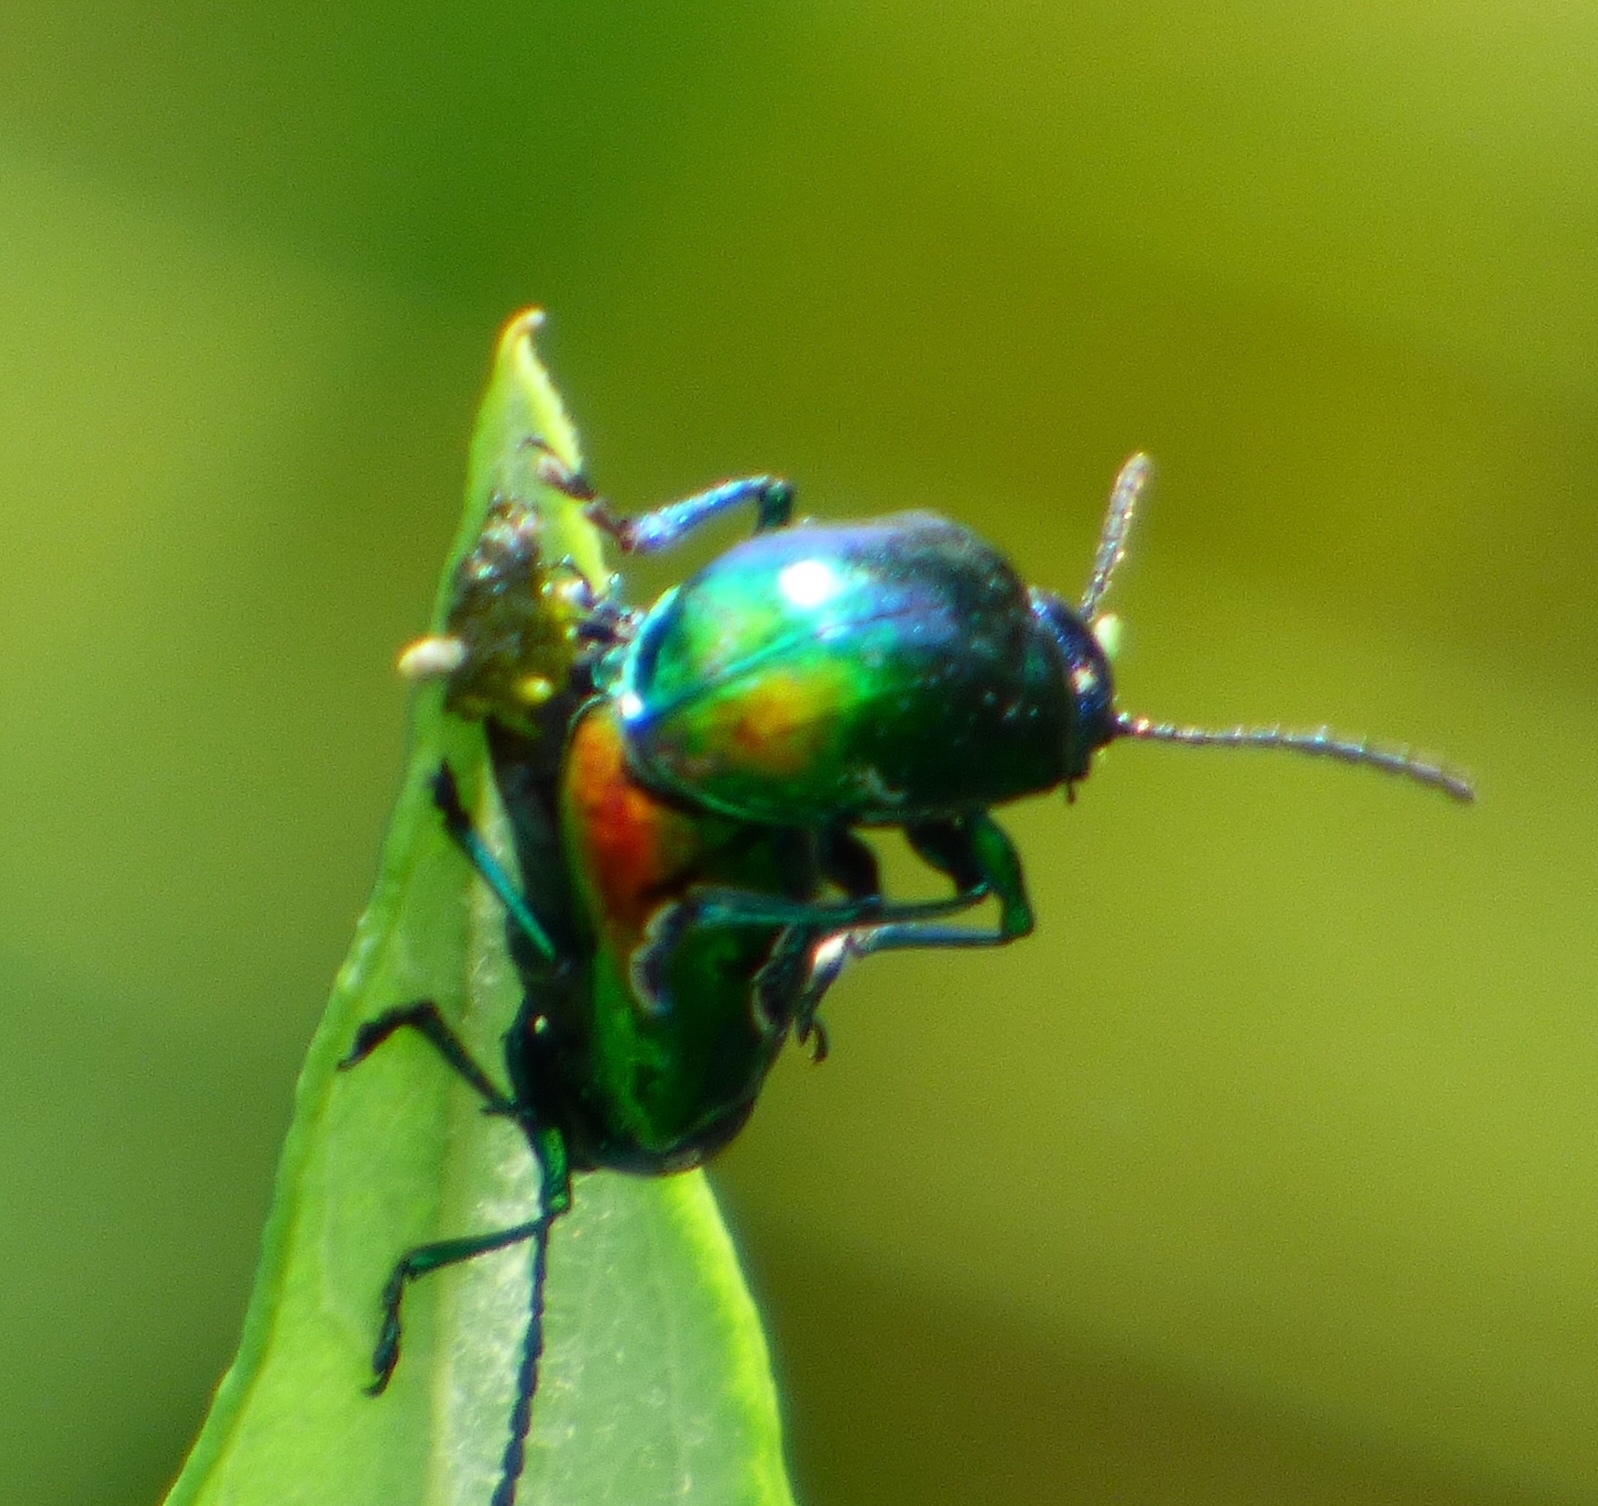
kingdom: Animalia
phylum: Arthropoda
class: Insecta
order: Coleoptera
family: Chrysomelidae
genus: Chrysochus
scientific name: Chrysochus auratus
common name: Dogbane leaf beetle
